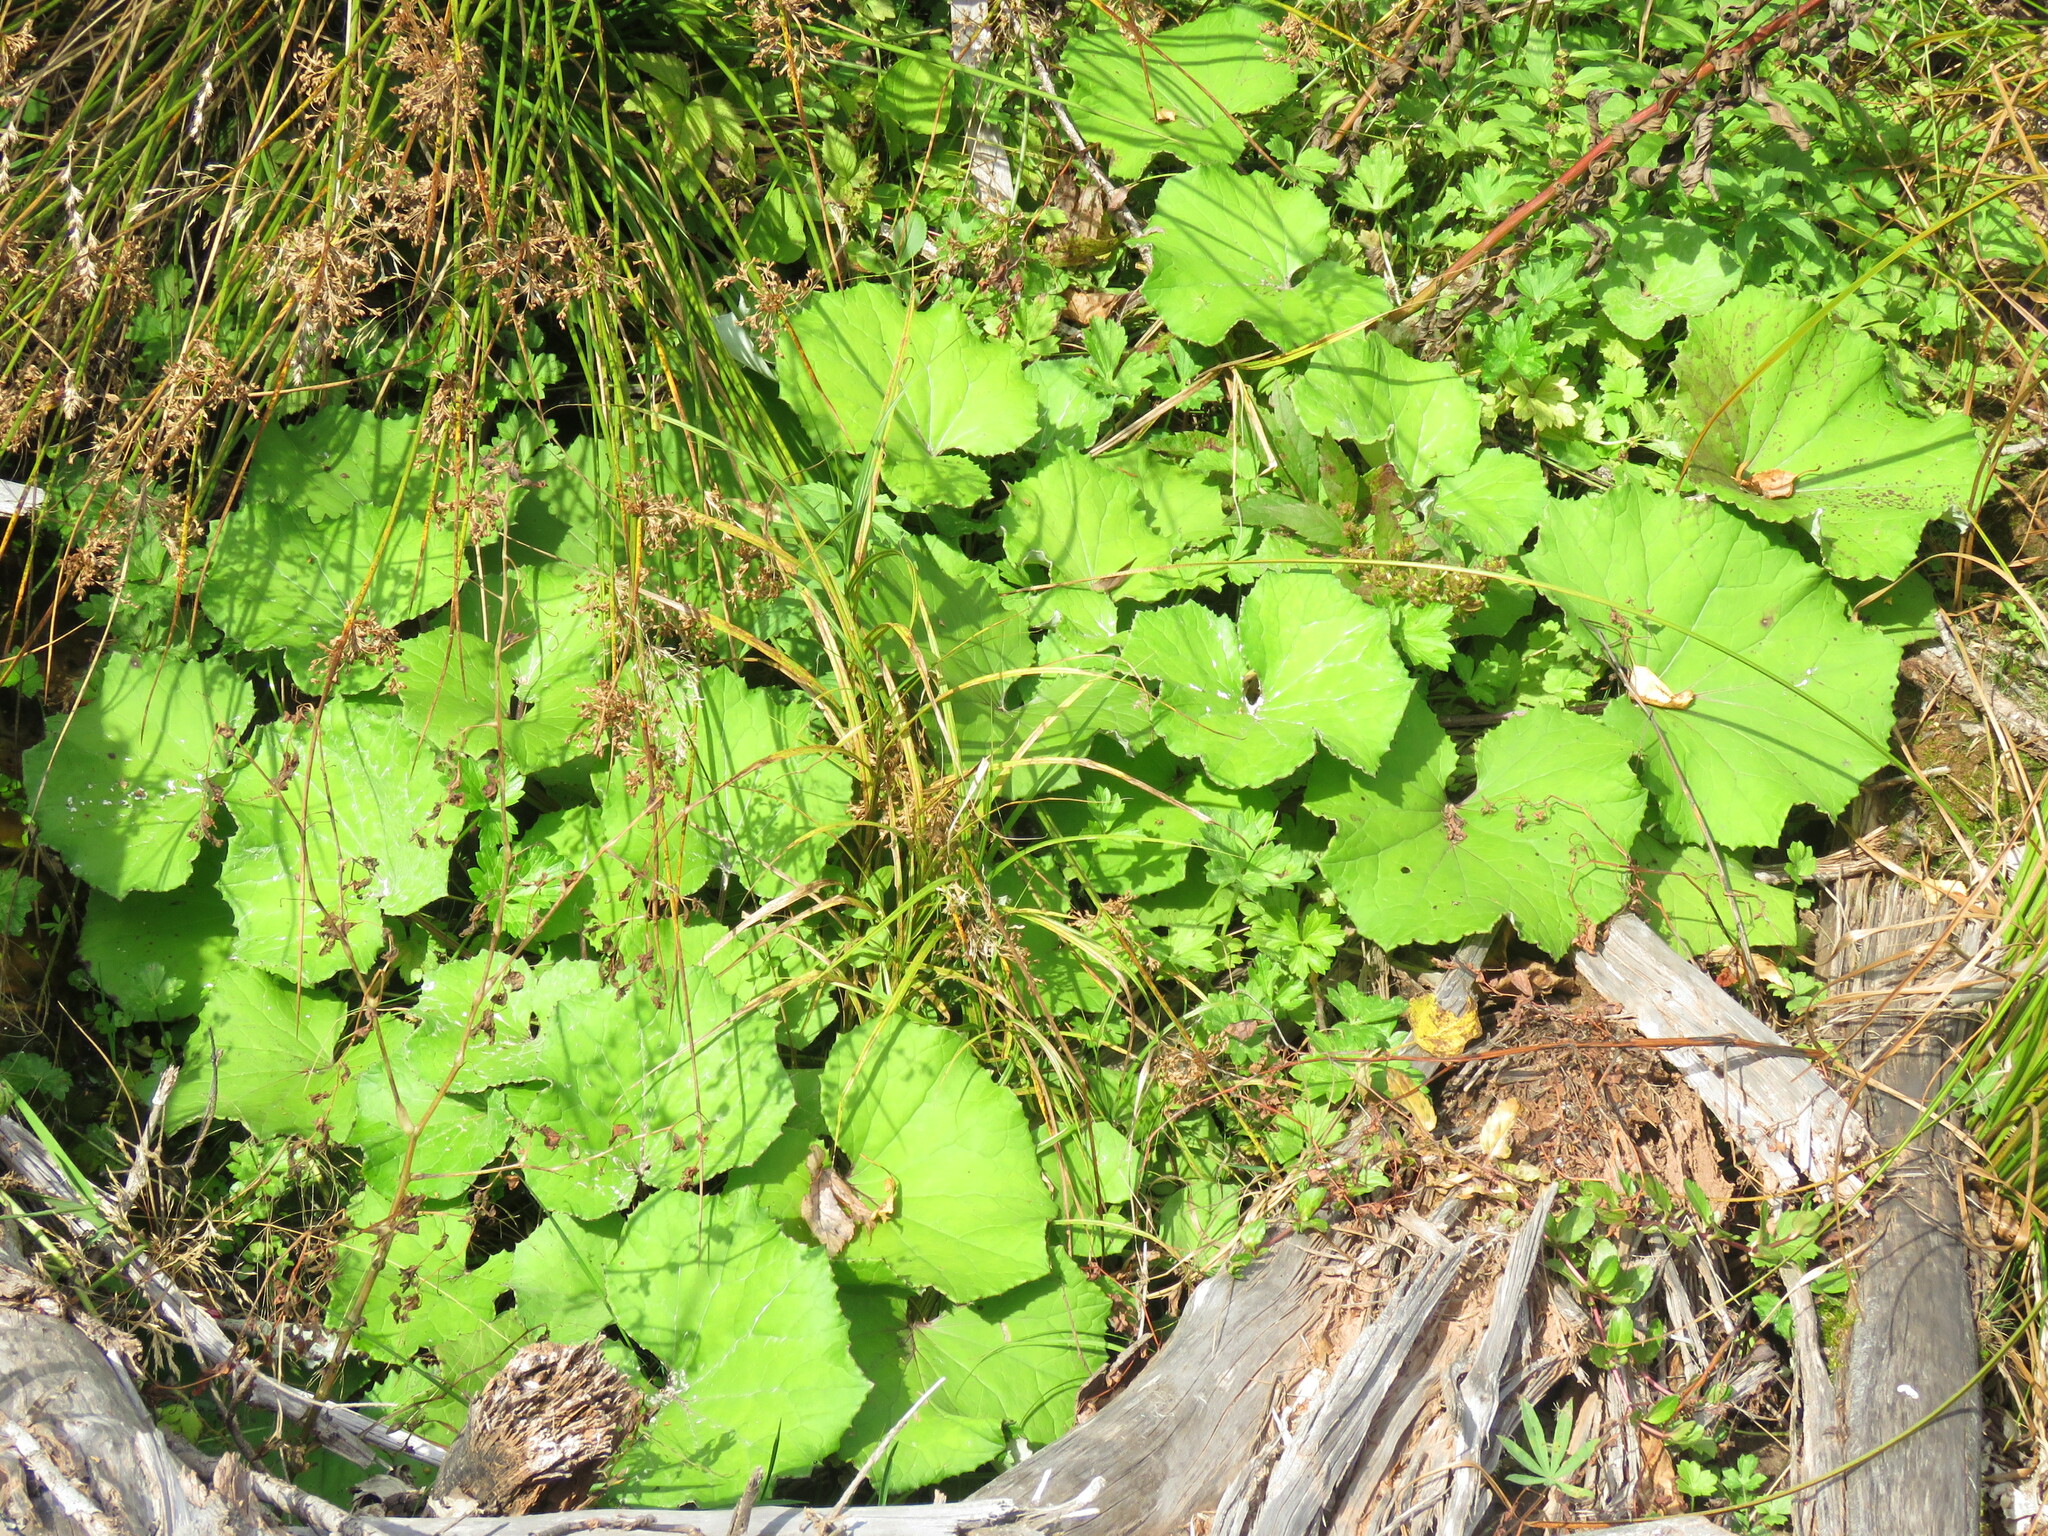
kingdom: Plantae
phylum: Tracheophyta
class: Magnoliopsida
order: Asterales
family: Asteraceae
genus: Tussilago
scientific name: Tussilago farfara
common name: Coltsfoot
